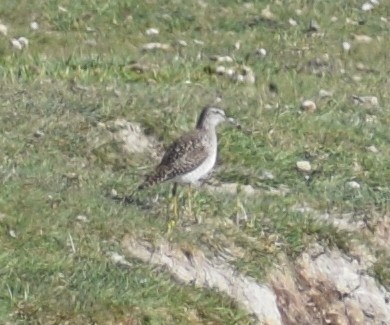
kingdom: Animalia
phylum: Chordata
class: Aves
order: Charadriiformes
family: Scolopacidae
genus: Tringa
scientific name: Tringa glareola
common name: Wood sandpiper
